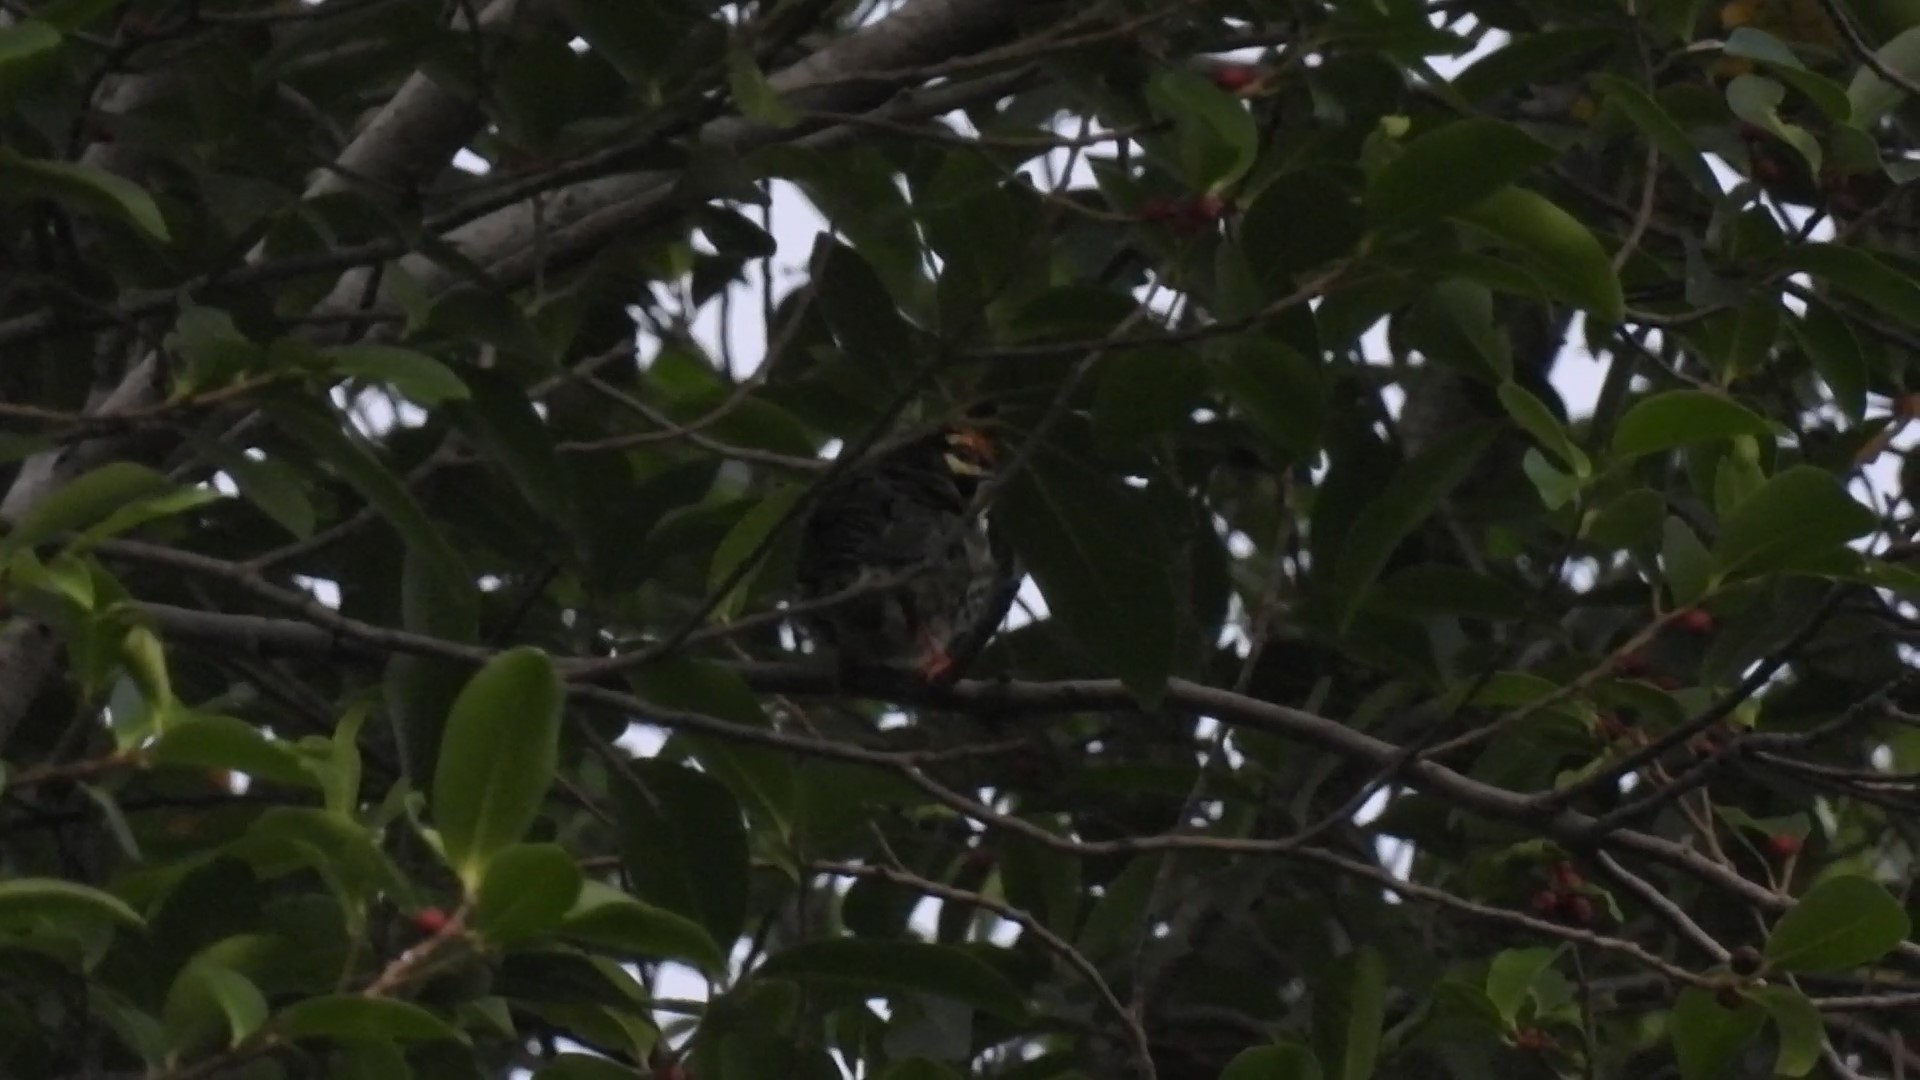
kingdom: Animalia
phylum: Chordata
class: Aves
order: Piciformes
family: Megalaimidae
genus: Psilopogon
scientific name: Psilopogon haemacephalus
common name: Coppersmith barbet
